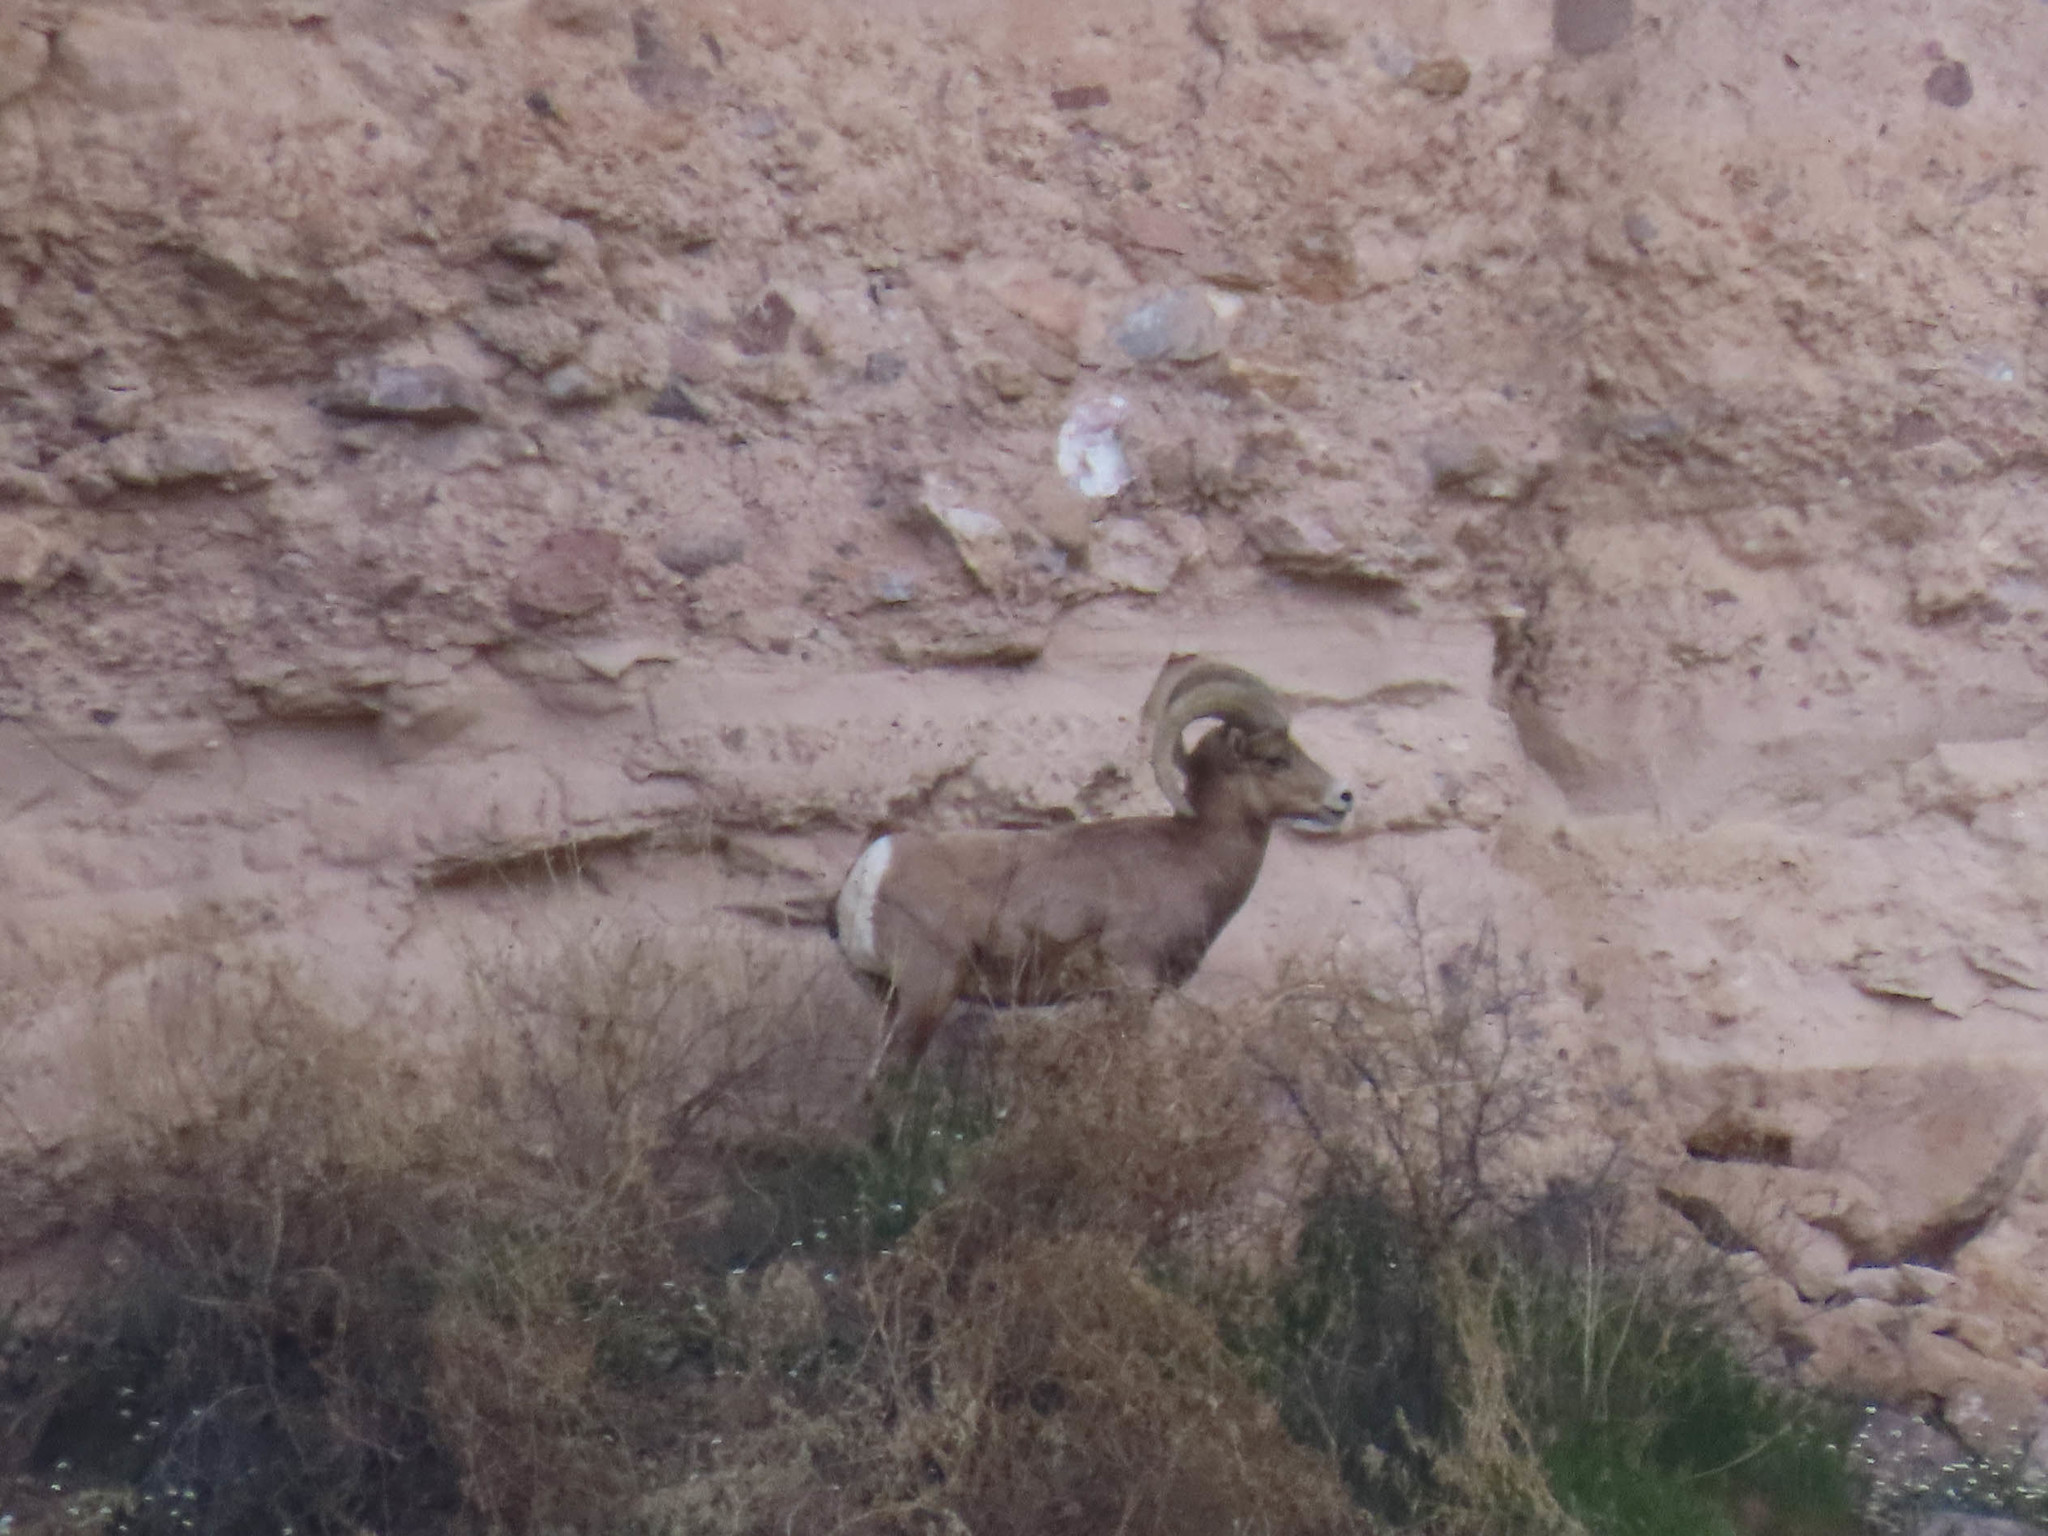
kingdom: Animalia
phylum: Chordata
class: Mammalia
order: Artiodactyla
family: Bovidae
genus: Ovis
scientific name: Ovis canadensis
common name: Bighorn sheep
